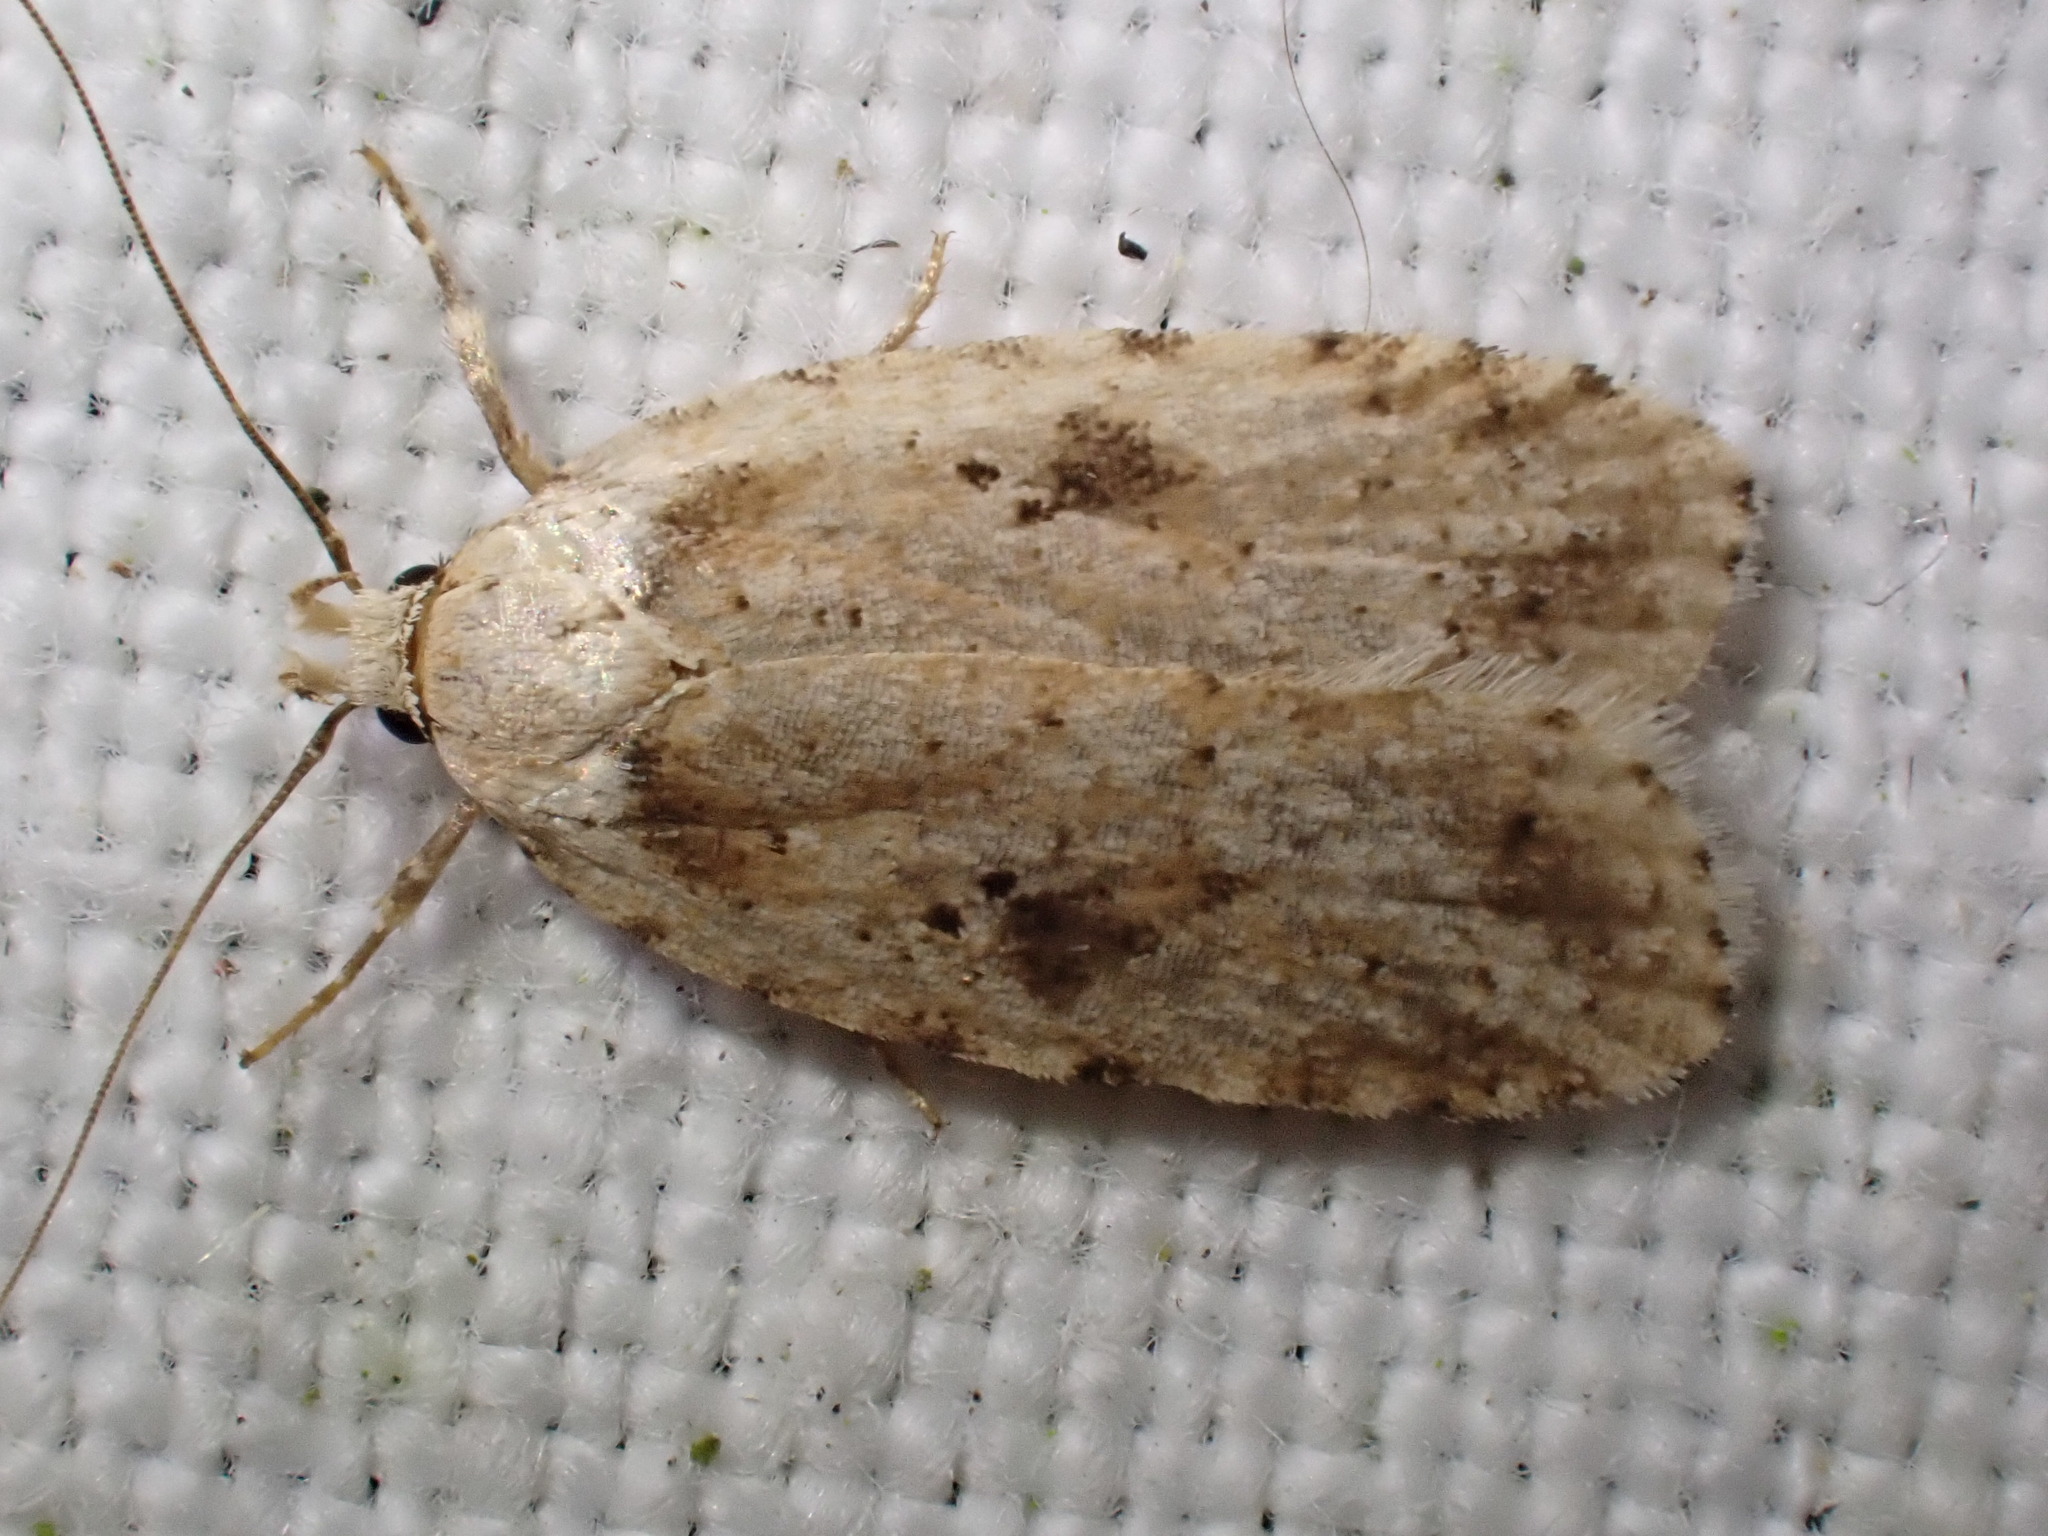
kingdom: Animalia
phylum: Arthropoda
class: Insecta
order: Lepidoptera
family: Depressariidae
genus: Agonopterix
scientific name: Agonopterix arenella
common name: Brindled flat-body
